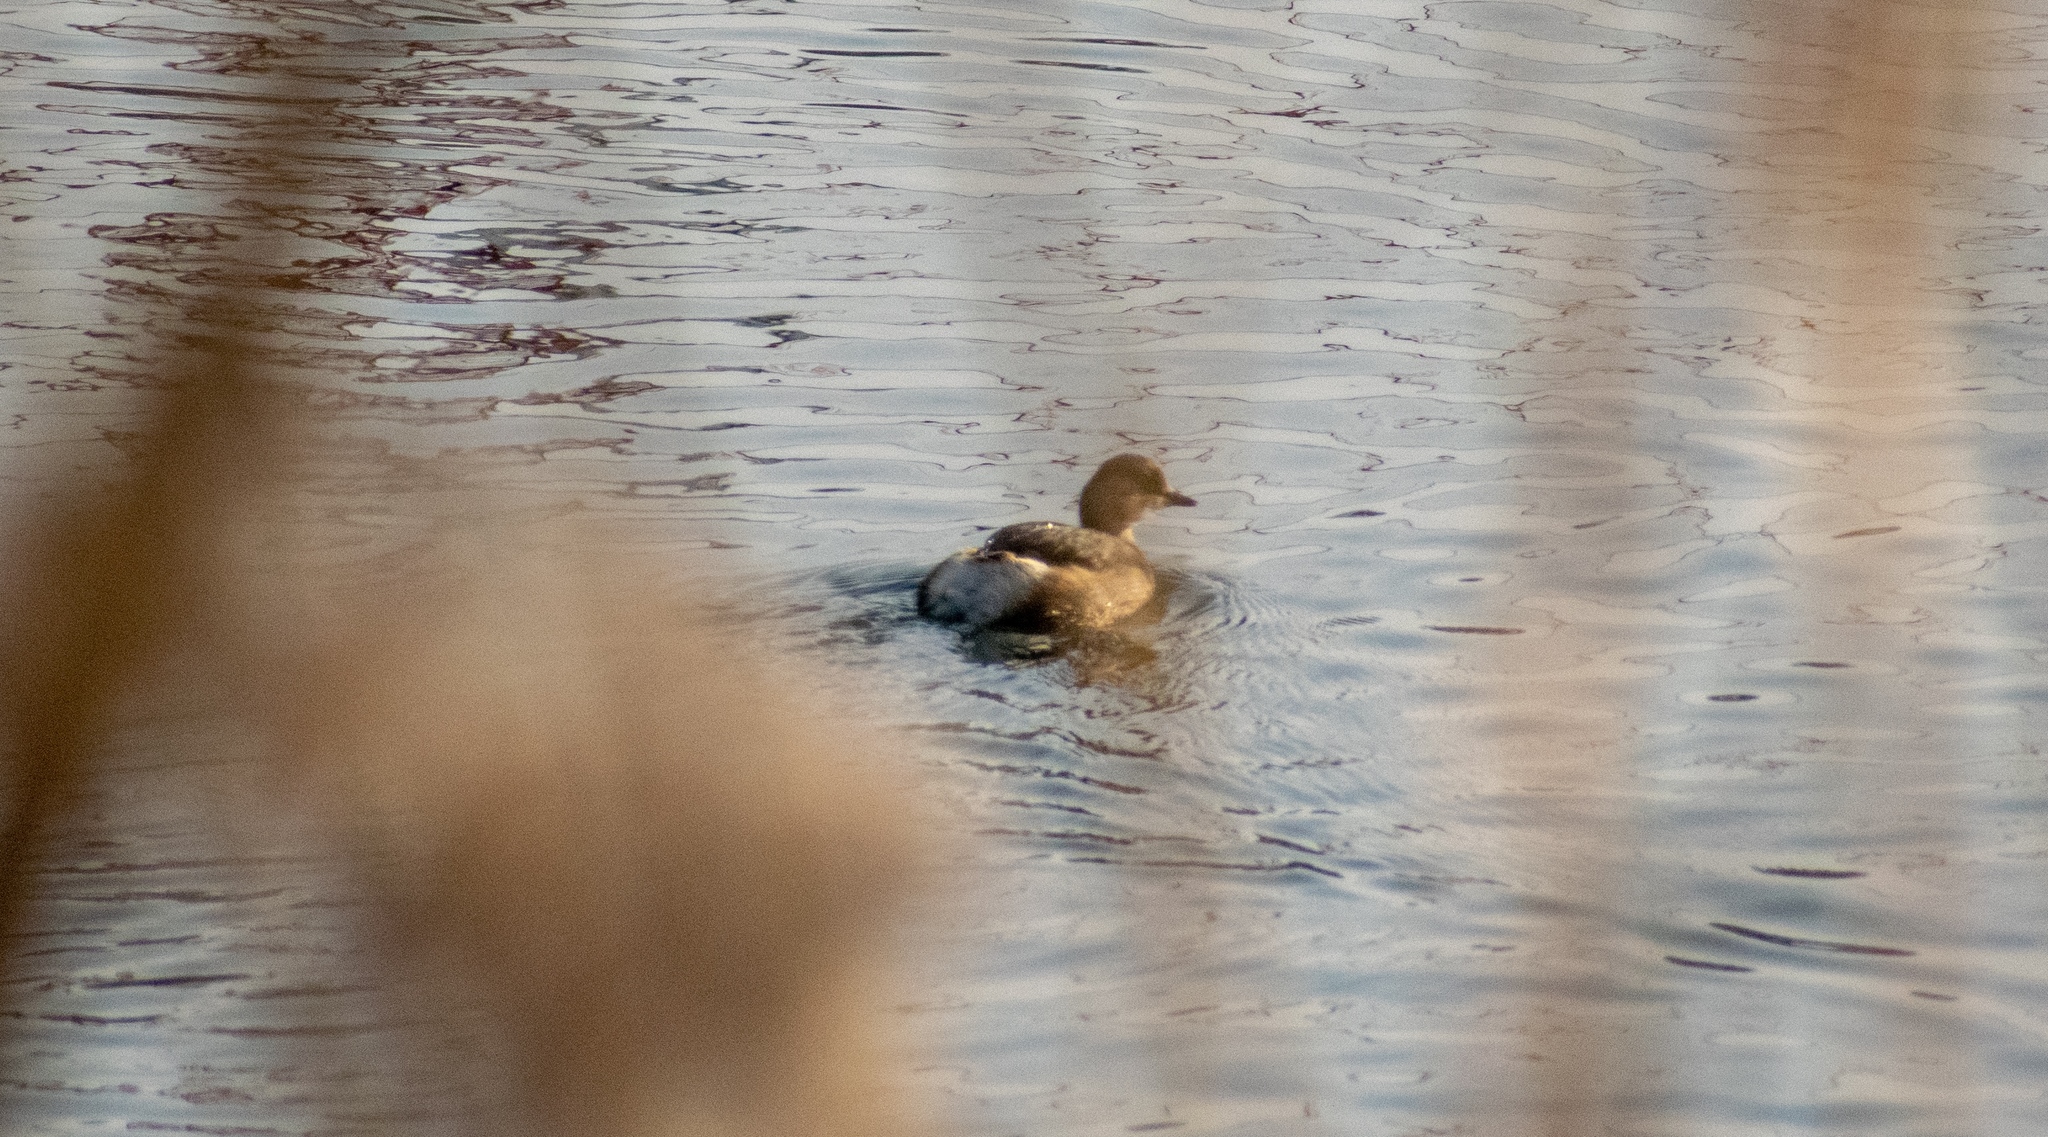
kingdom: Animalia
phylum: Chordata
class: Aves
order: Podicipediformes
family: Podicipedidae
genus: Tachybaptus
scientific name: Tachybaptus ruficollis
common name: Little grebe
